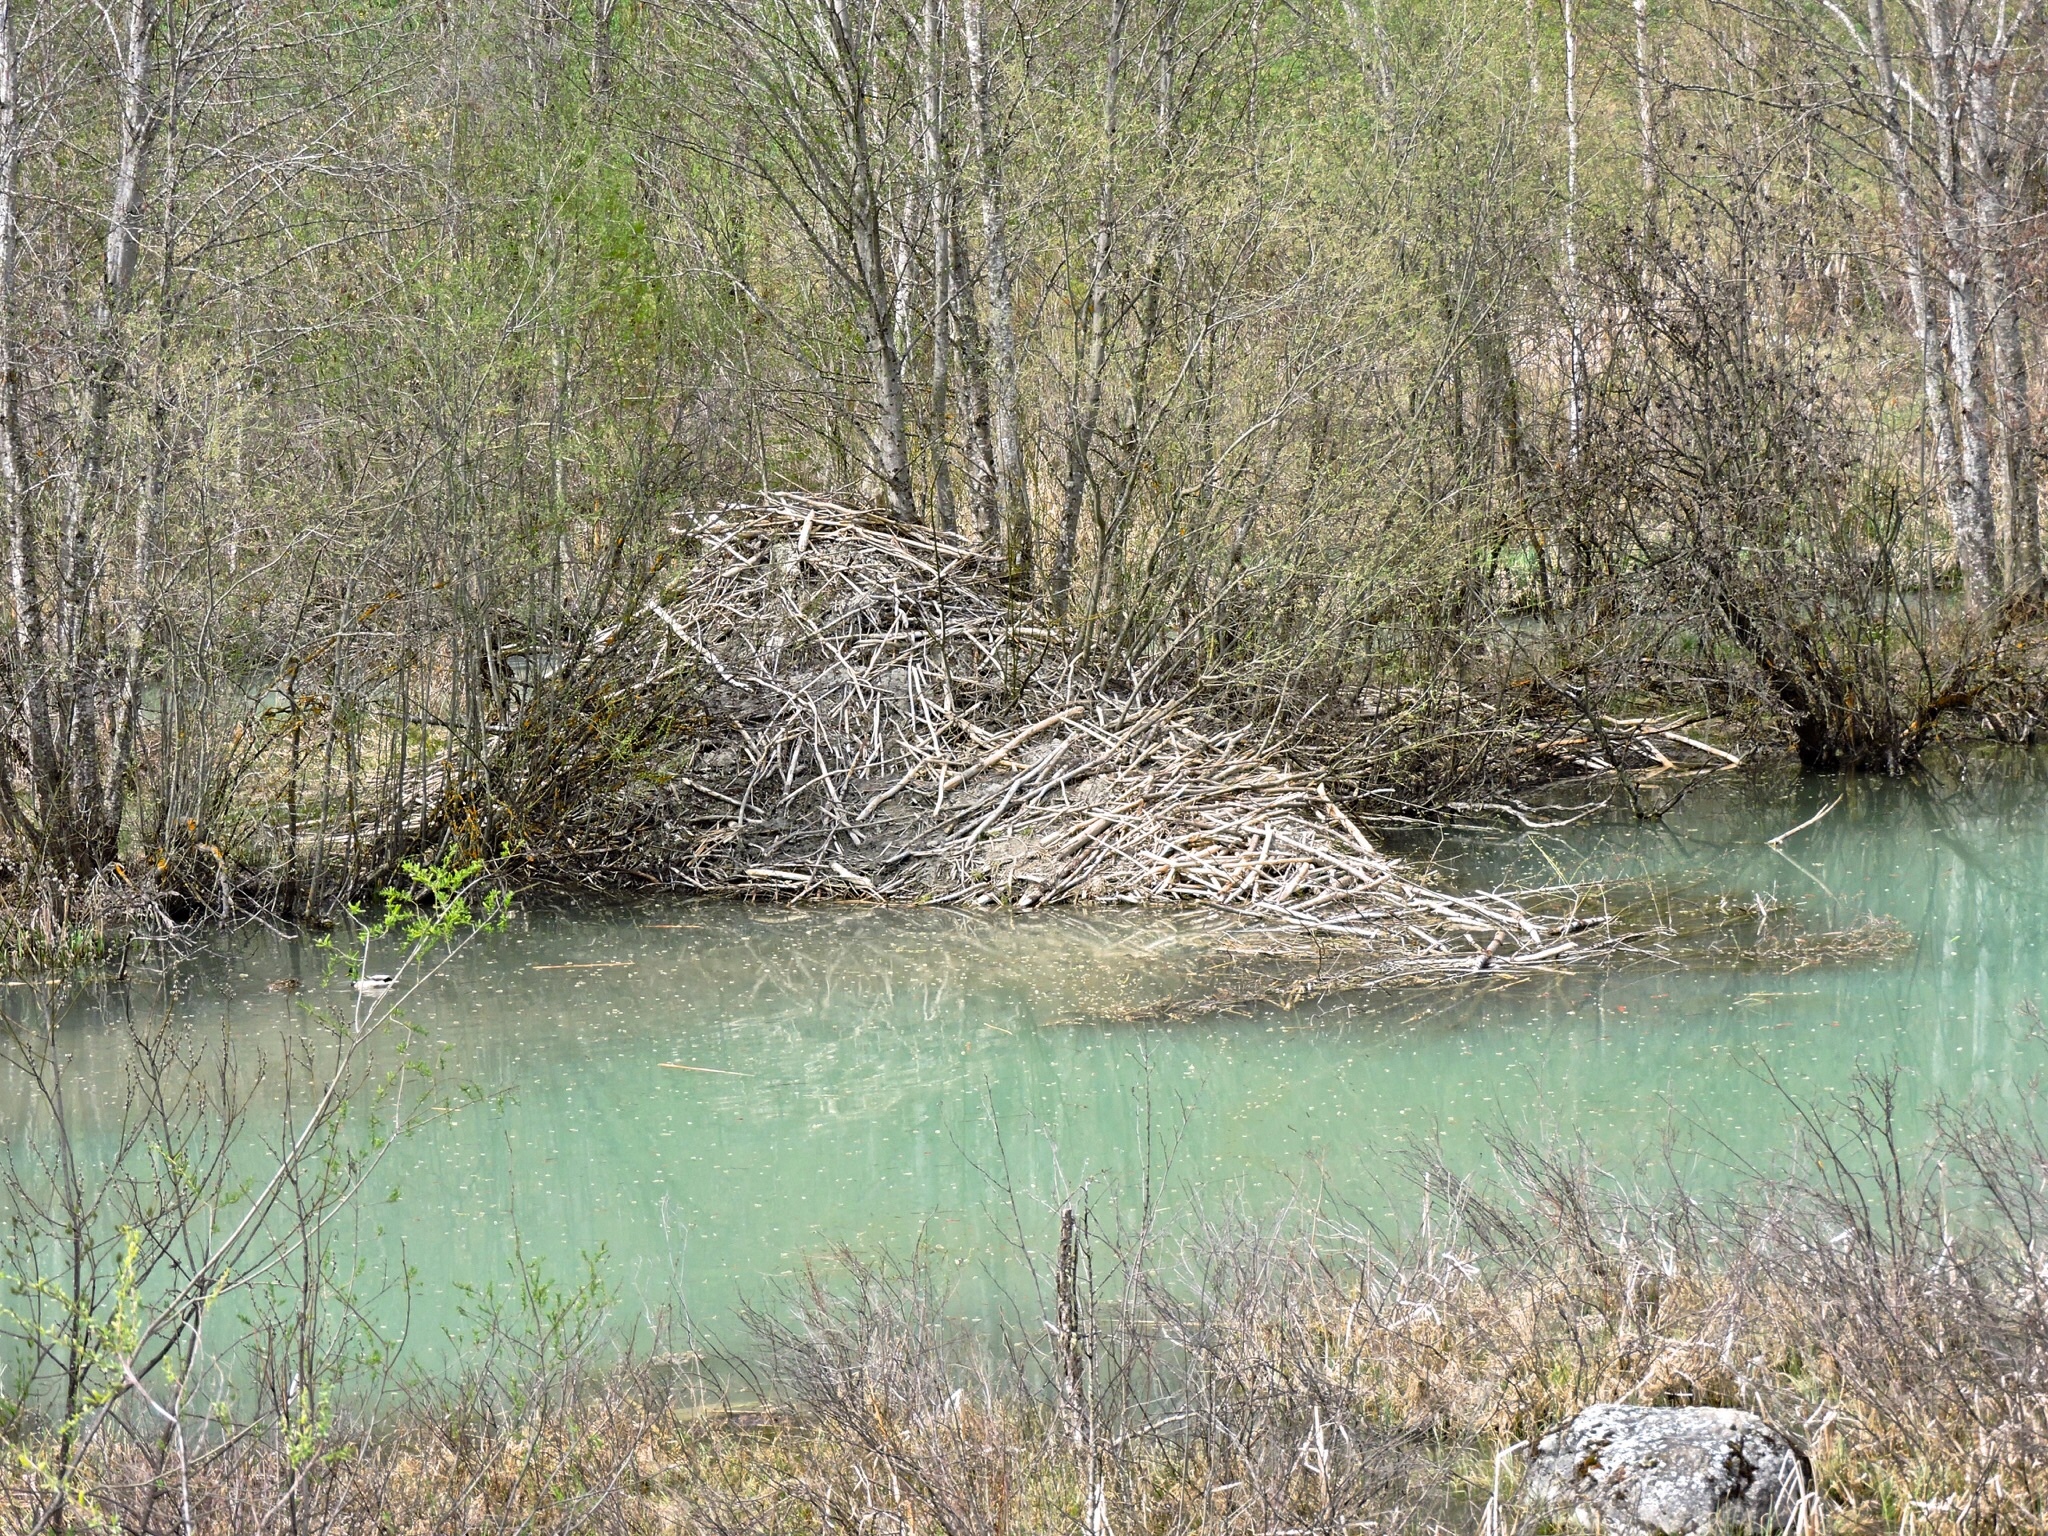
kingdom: Animalia
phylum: Chordata
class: Mammalia
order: Rodentia
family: Castoridae
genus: Castor
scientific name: Castor fiber
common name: Eurasian beaver
